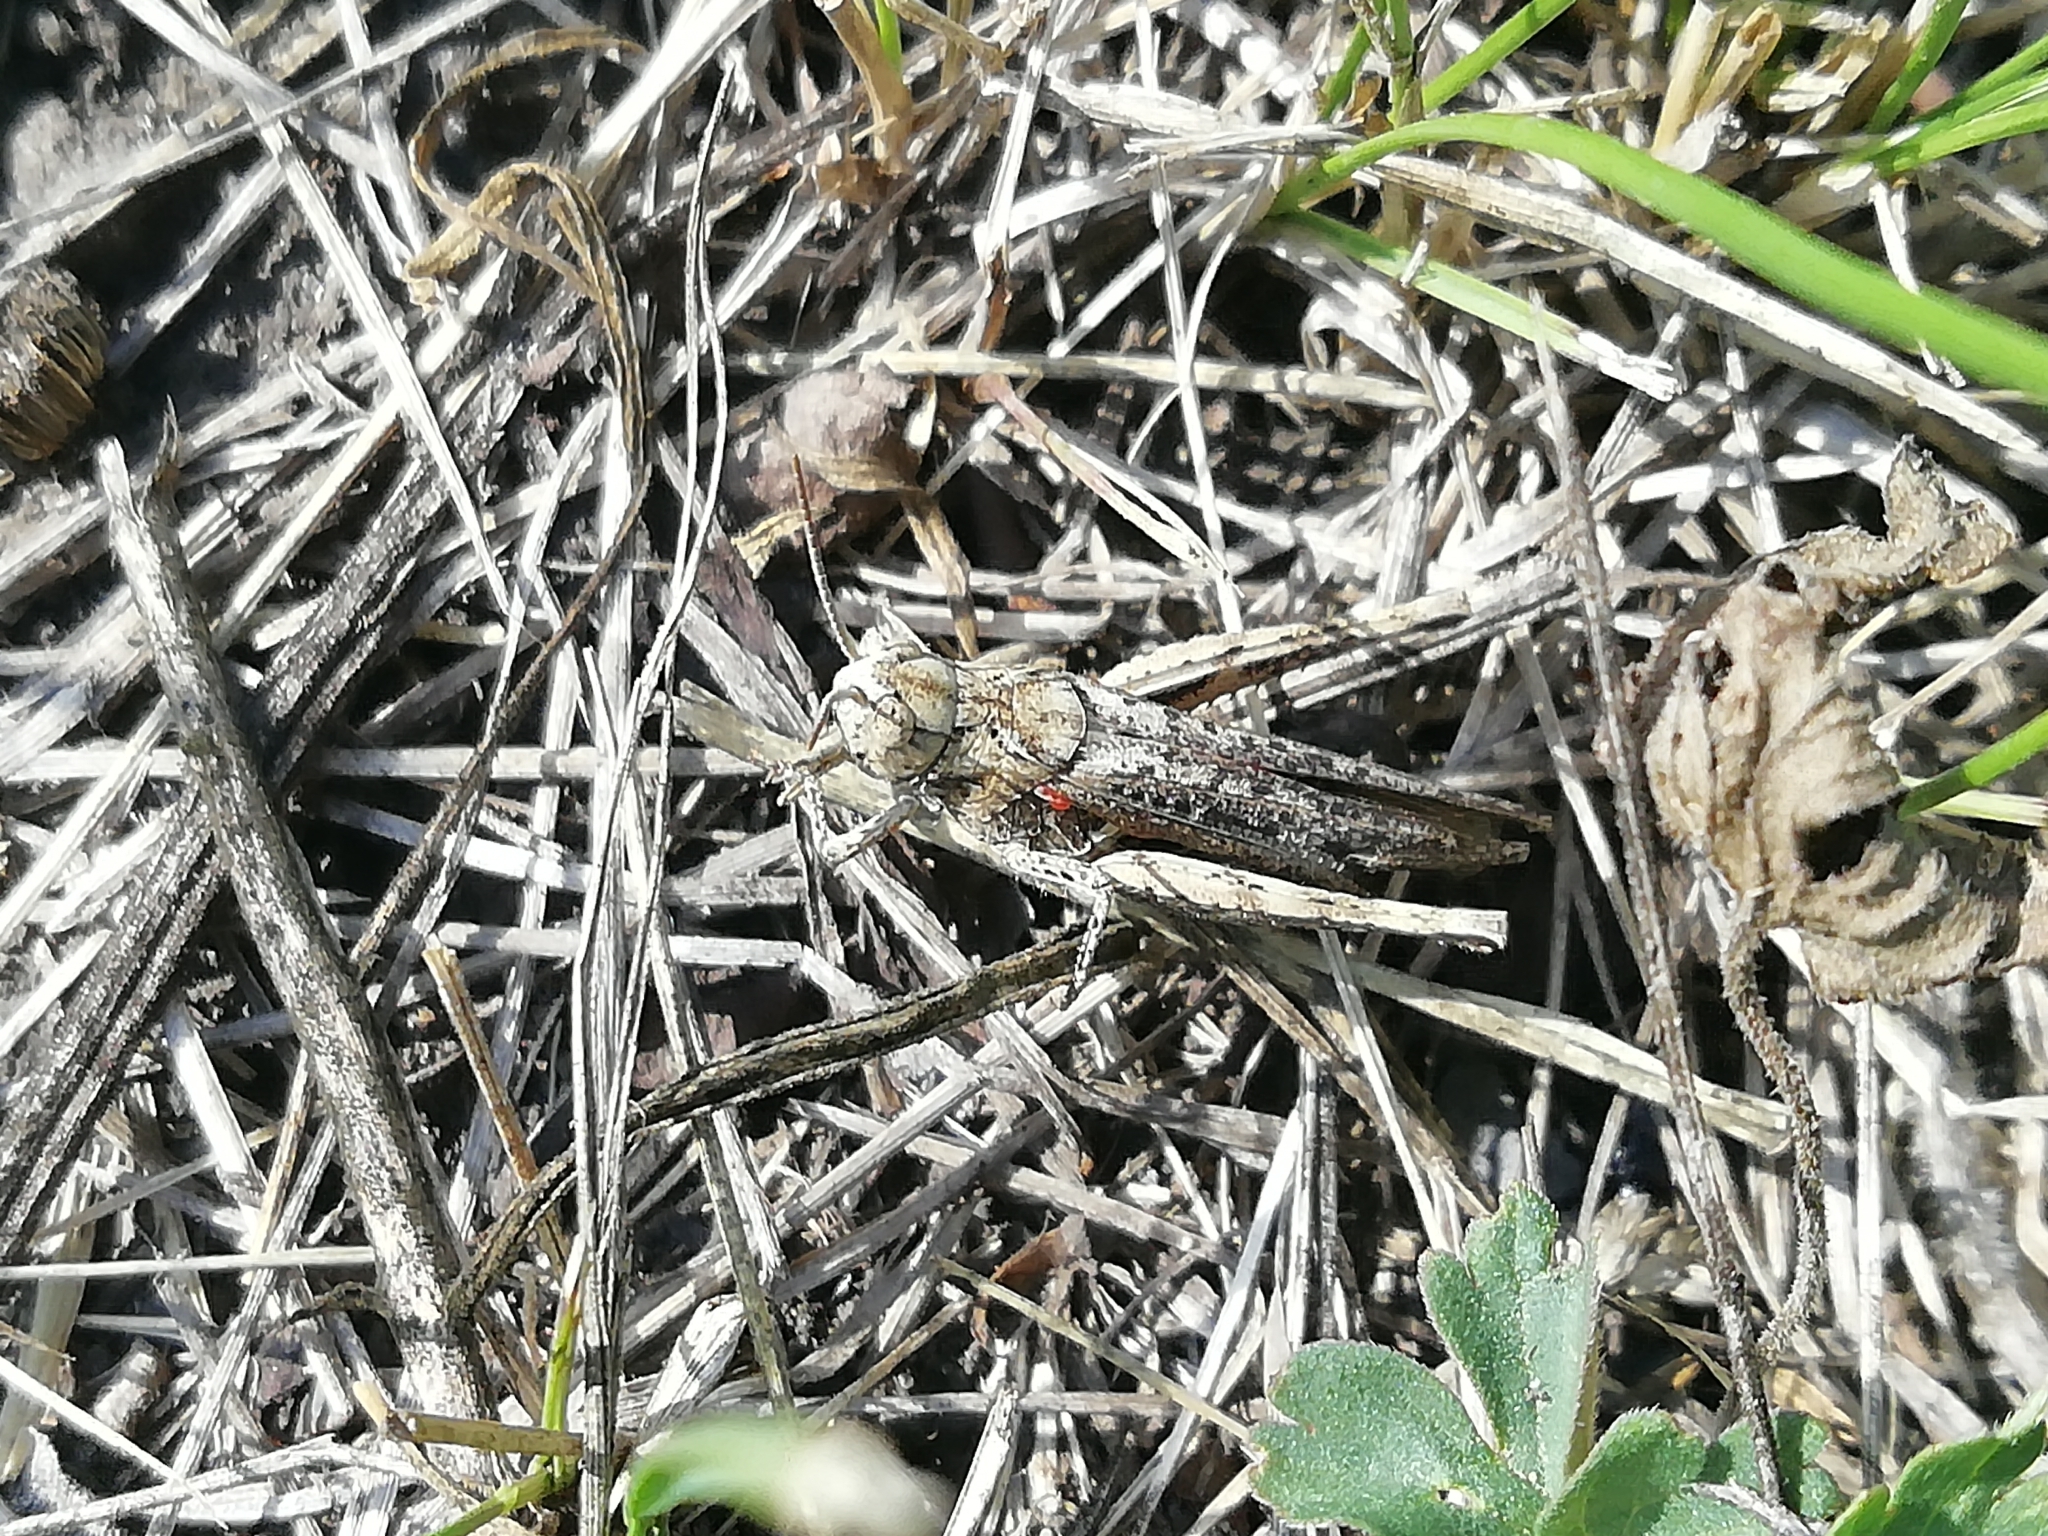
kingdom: Animalia
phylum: Arthropoda
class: Insecta
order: Orthoptera
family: Acrididae
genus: Chorthippus
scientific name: Chorthippus biguttulus
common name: Bow-winged grasshopper
